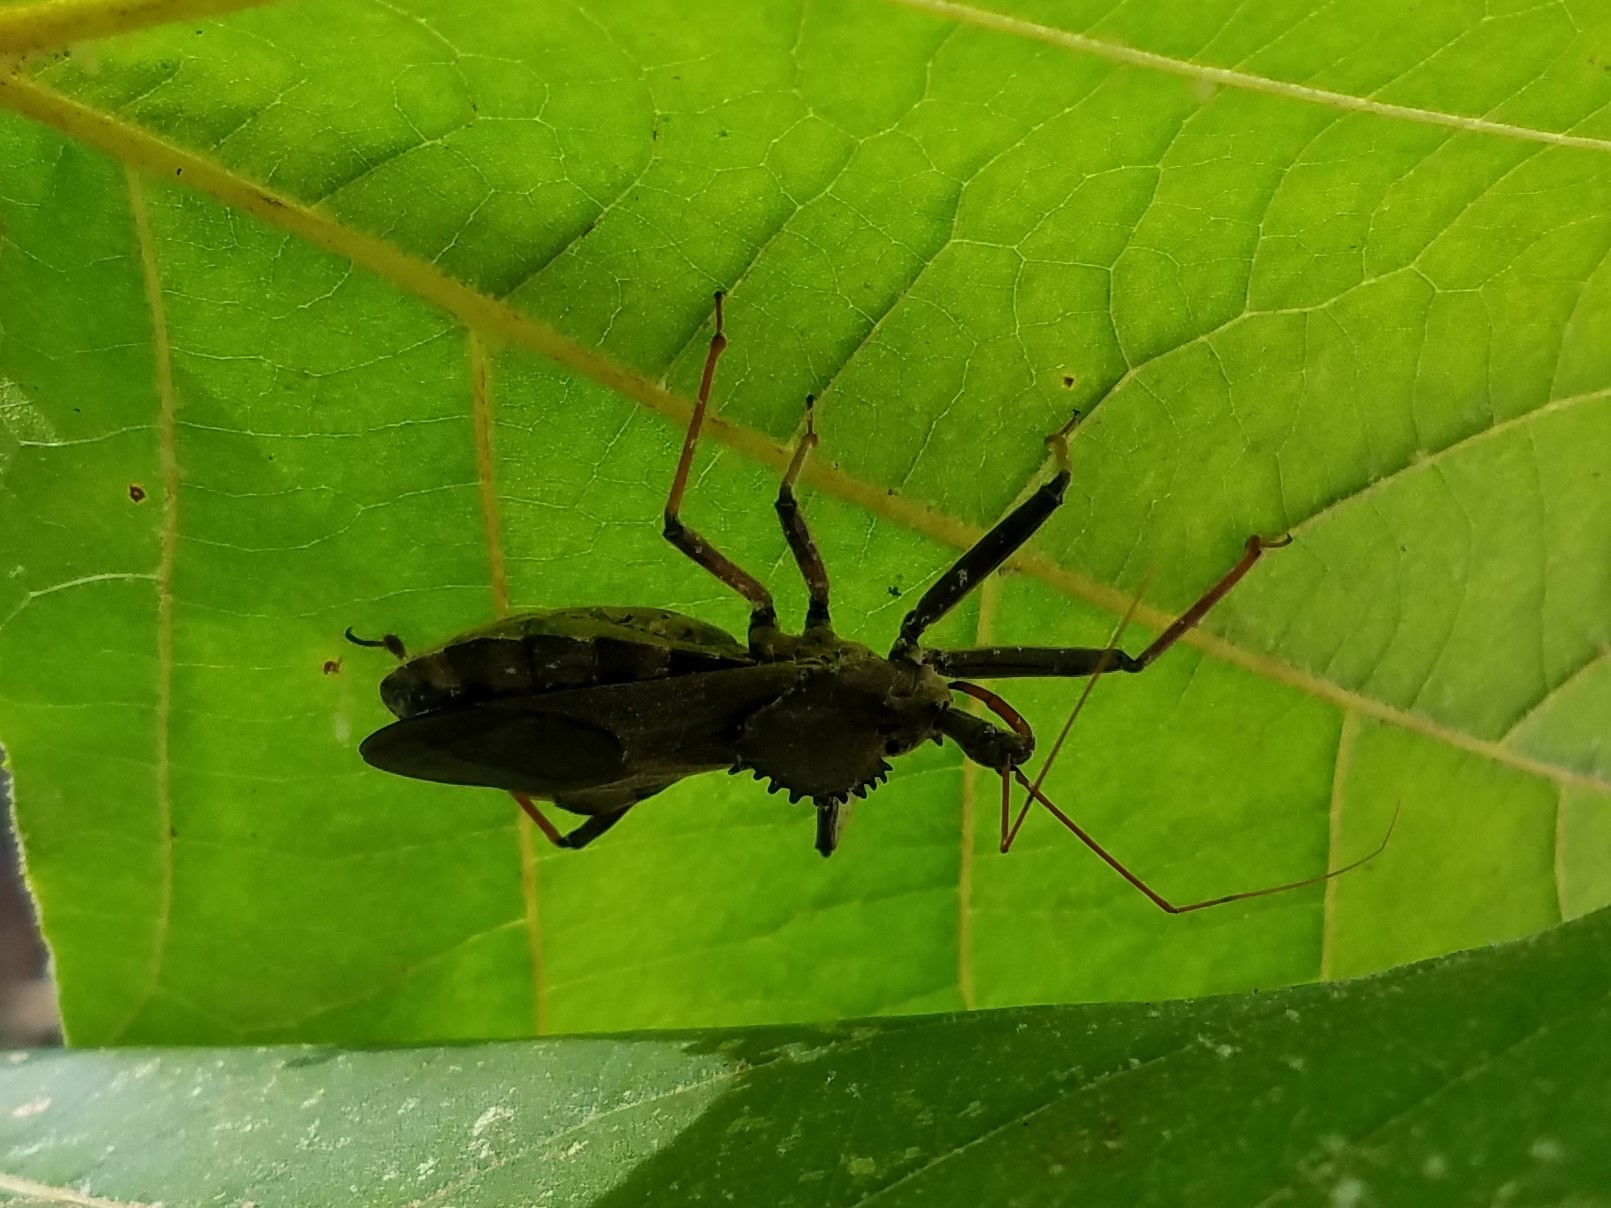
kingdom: Animalia
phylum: Arthropoda
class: Insecta
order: Hemiptera
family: Reduviidae
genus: Arilus
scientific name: Arilus cristatus
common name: North american wheel bug
